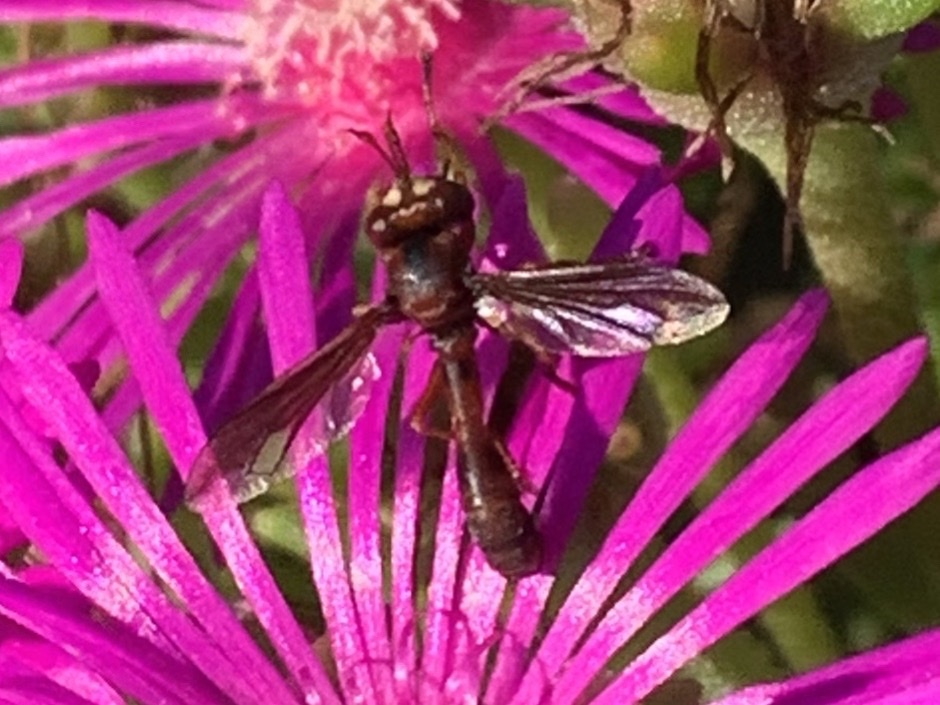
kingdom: Animalia
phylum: Arthropoda
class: Insecta
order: Diptera
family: Conopidae
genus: Physocephala
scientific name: Physocephala burgessi
